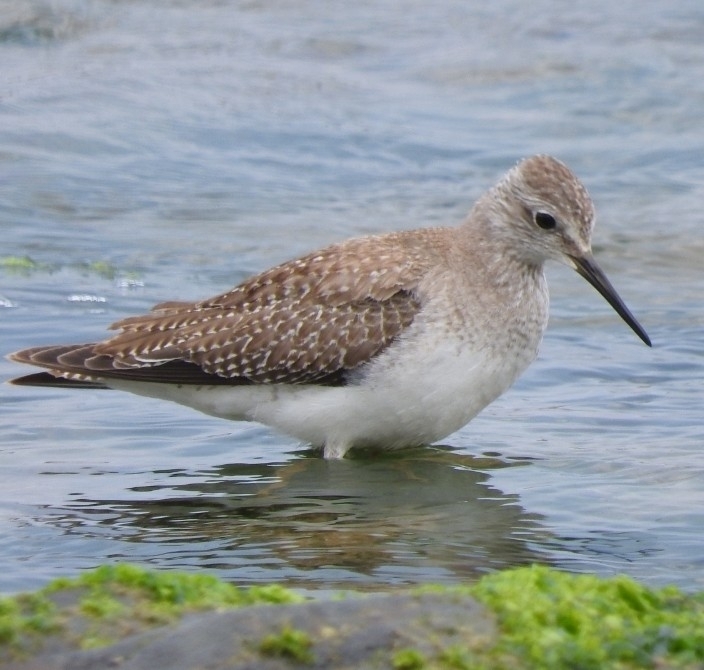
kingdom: Animalia
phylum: Chordata
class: Aves
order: Charadriiformes
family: Scolopacidae
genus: Tringa
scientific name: Tringa flavipes
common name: Lesser yellowlegs
